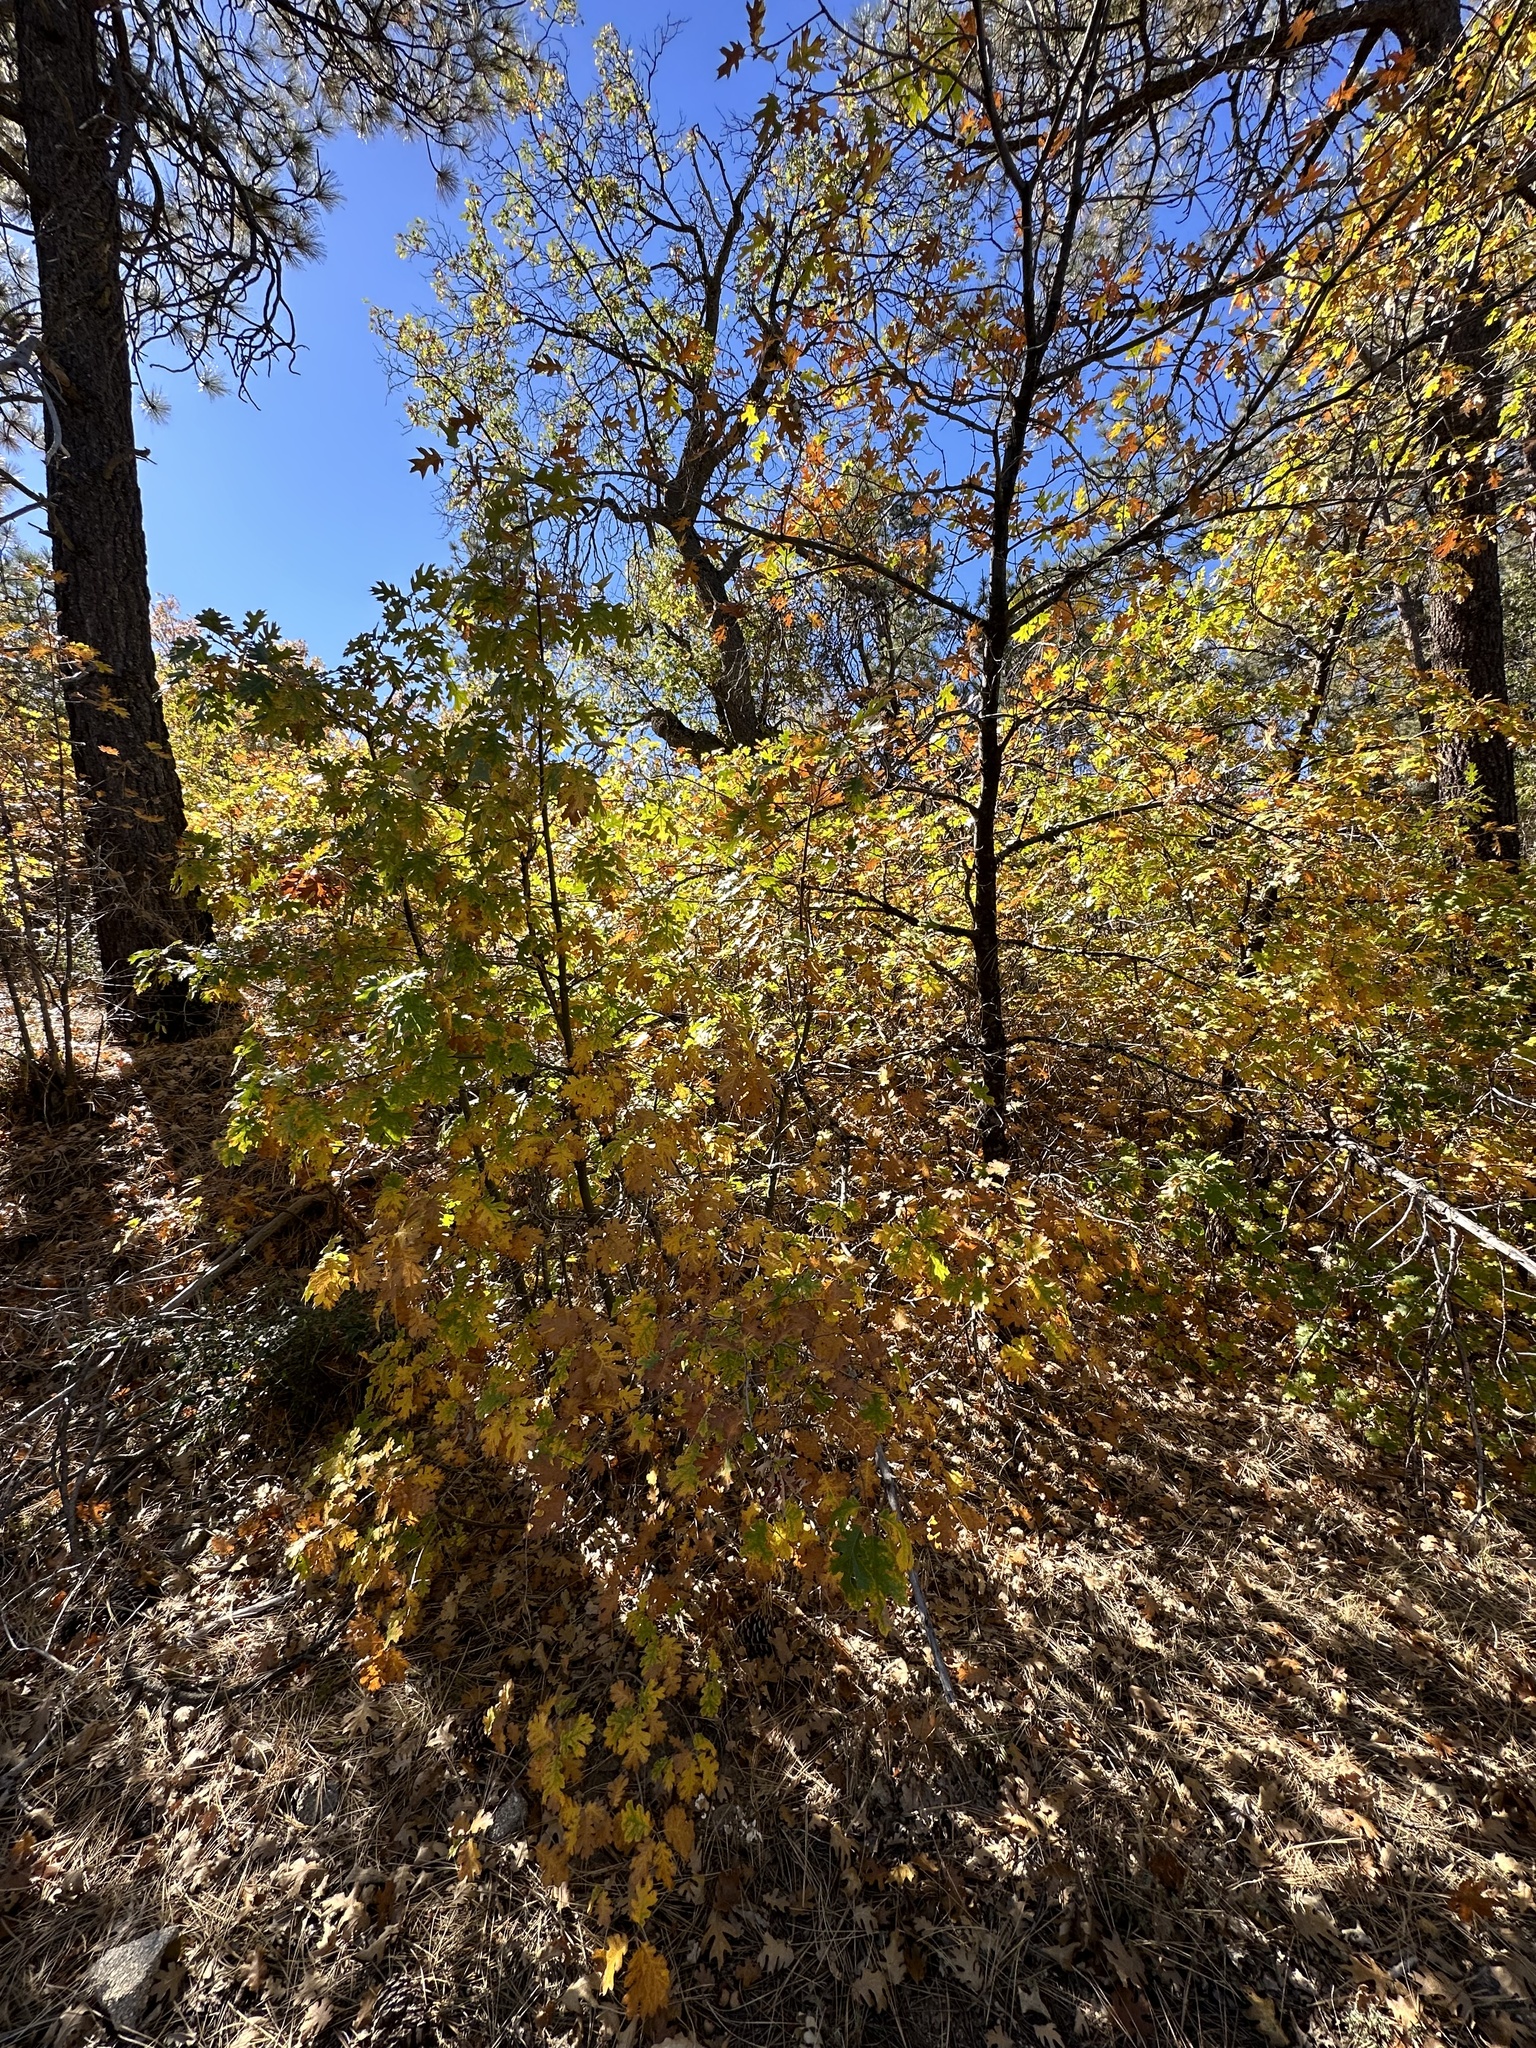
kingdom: Plantae
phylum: Tracheophyta
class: Magnoliopsida
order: Fagales
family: Fagaceae
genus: Quercus
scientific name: Quercus kelloggii
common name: California black oak
